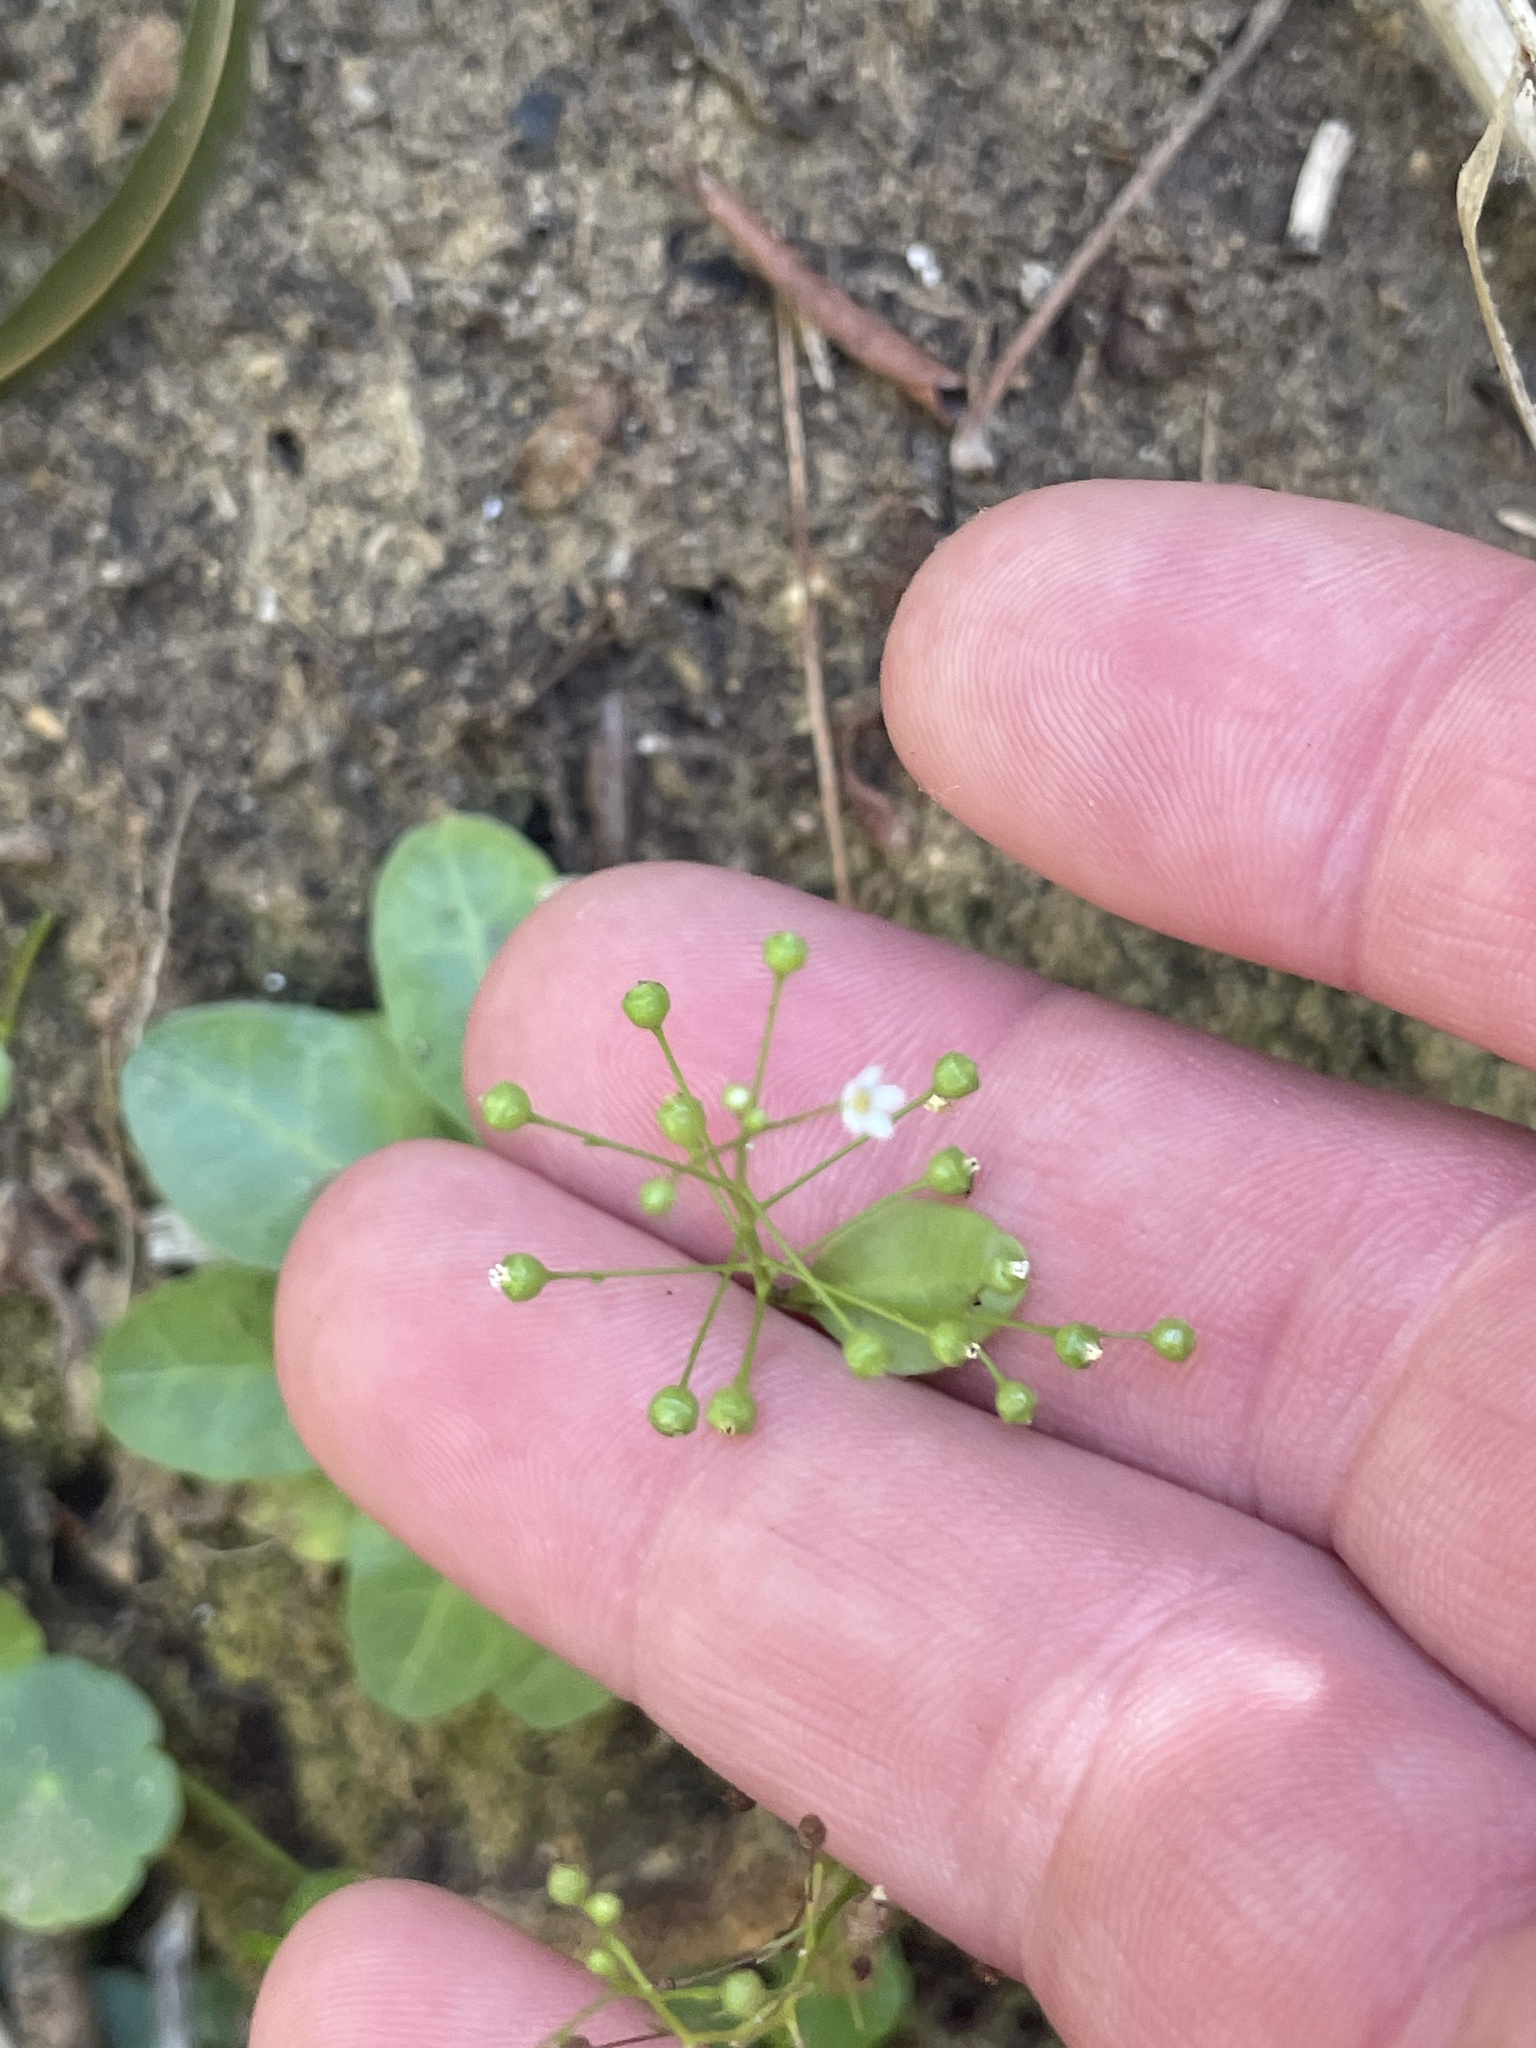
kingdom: Plantae
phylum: Tracheophyta
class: Magnoliopsida
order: Ericales
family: Primulaceae
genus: Samolus
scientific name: Samolus parviflorus
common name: False water pimpernel
